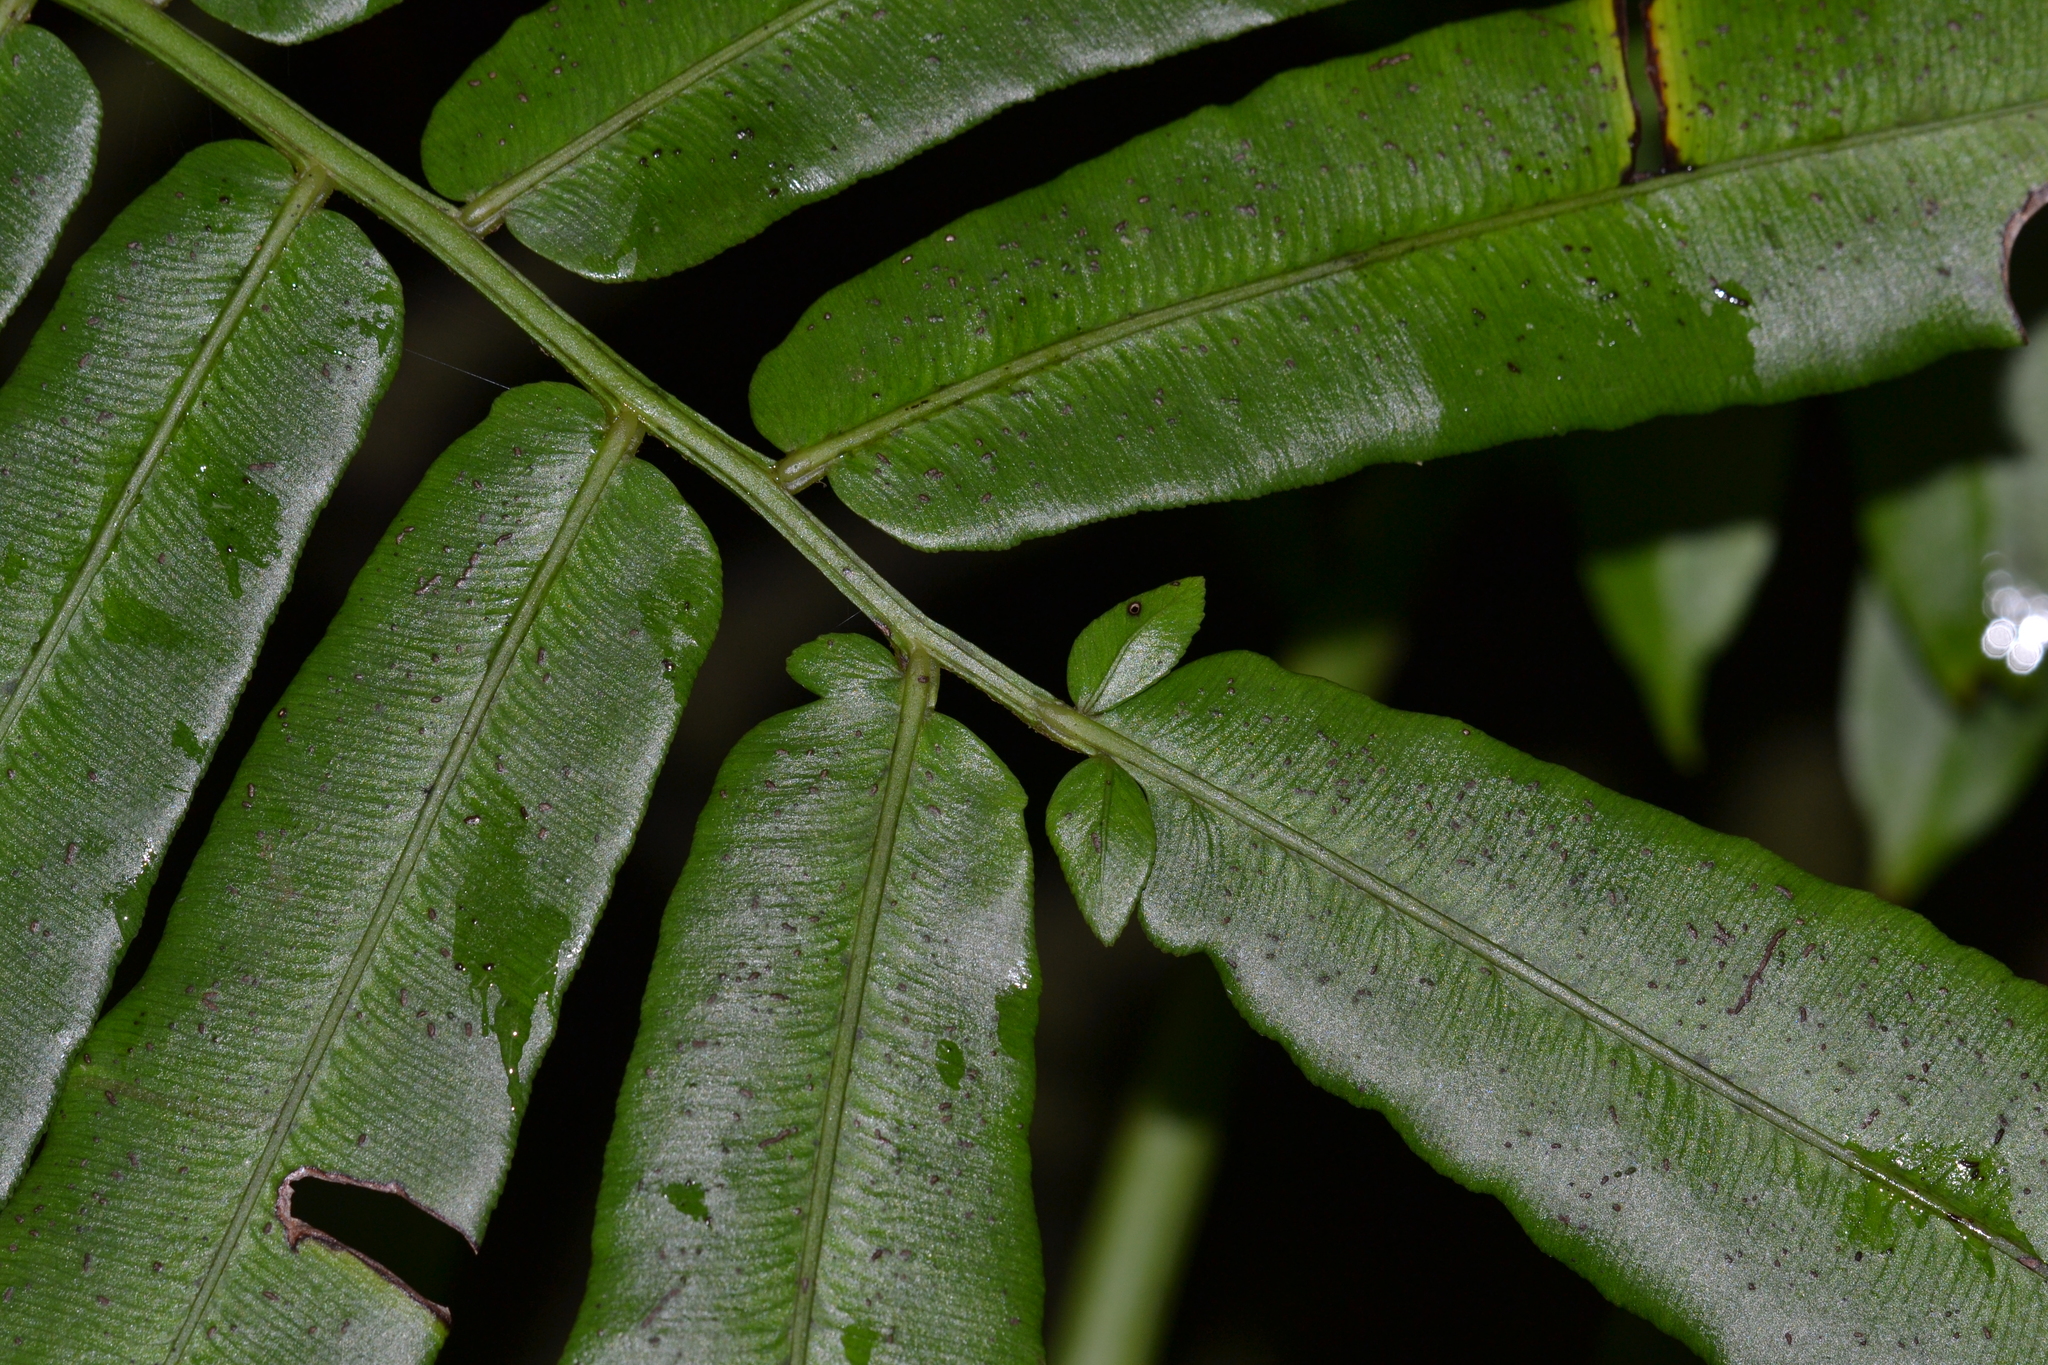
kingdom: Plantae
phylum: Tracheophyta
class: Polypodiopsida
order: Marattiales
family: Marattiaceae
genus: Angiopteris
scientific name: Angiopteris evecta
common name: Mule's-foot fern
